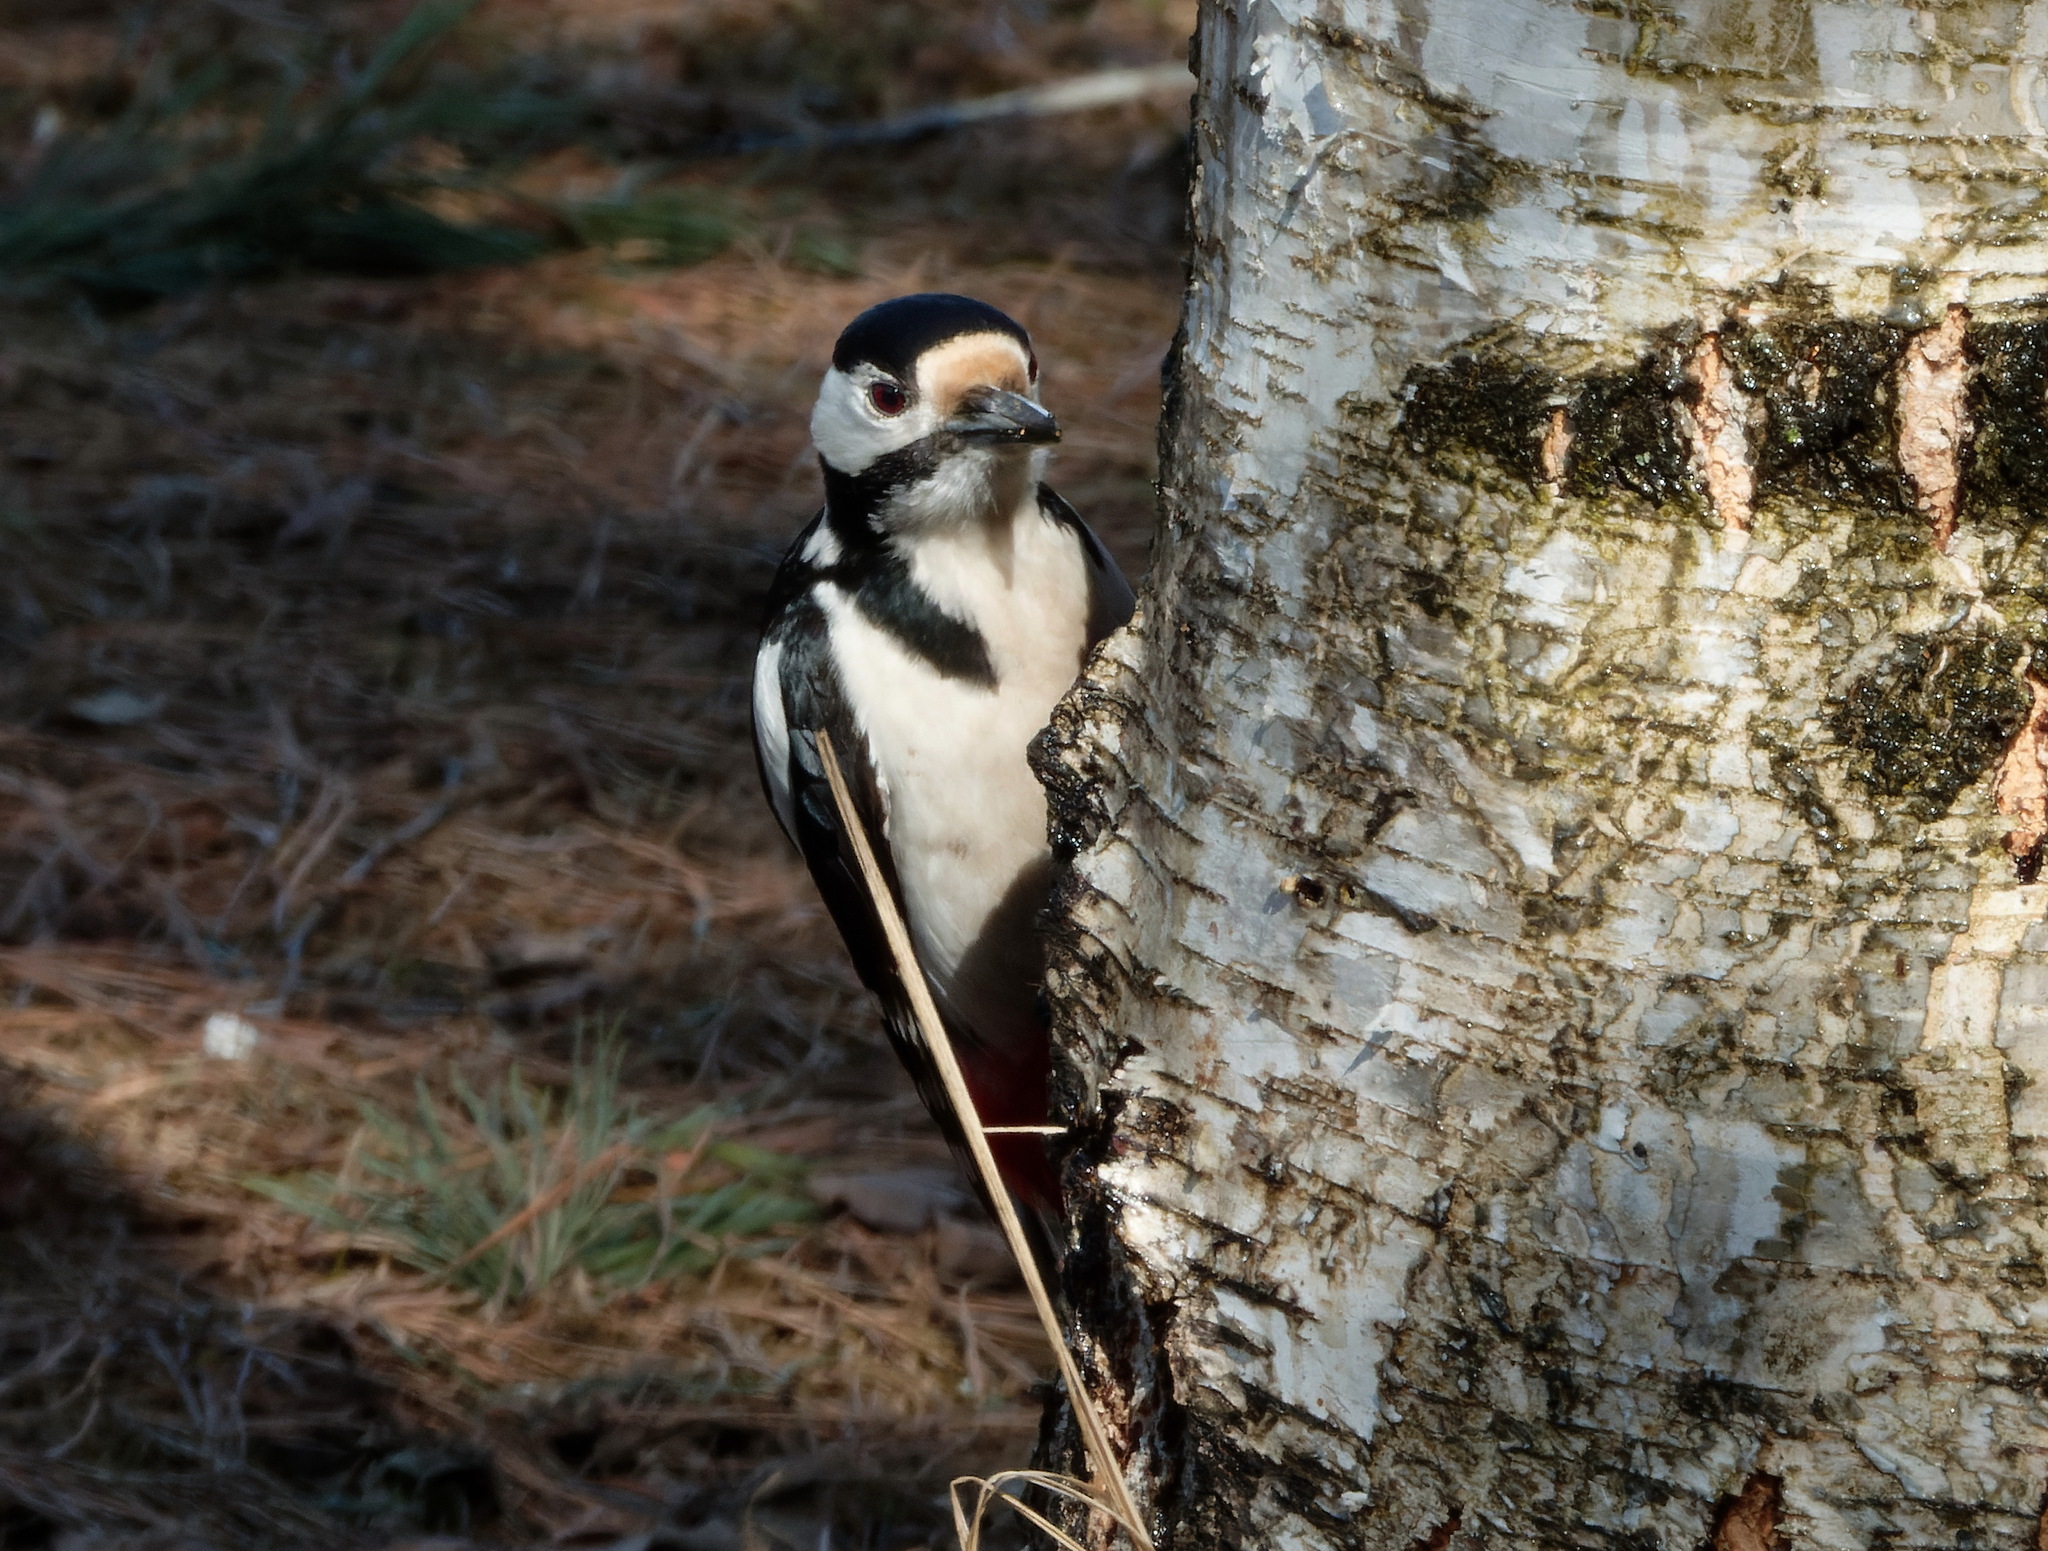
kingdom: Animalia
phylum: Chordata
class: Aves
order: Piciformes
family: Picidae
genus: Dendrocopos
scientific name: Dendrocopos major
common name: Great spotted woodpecker
